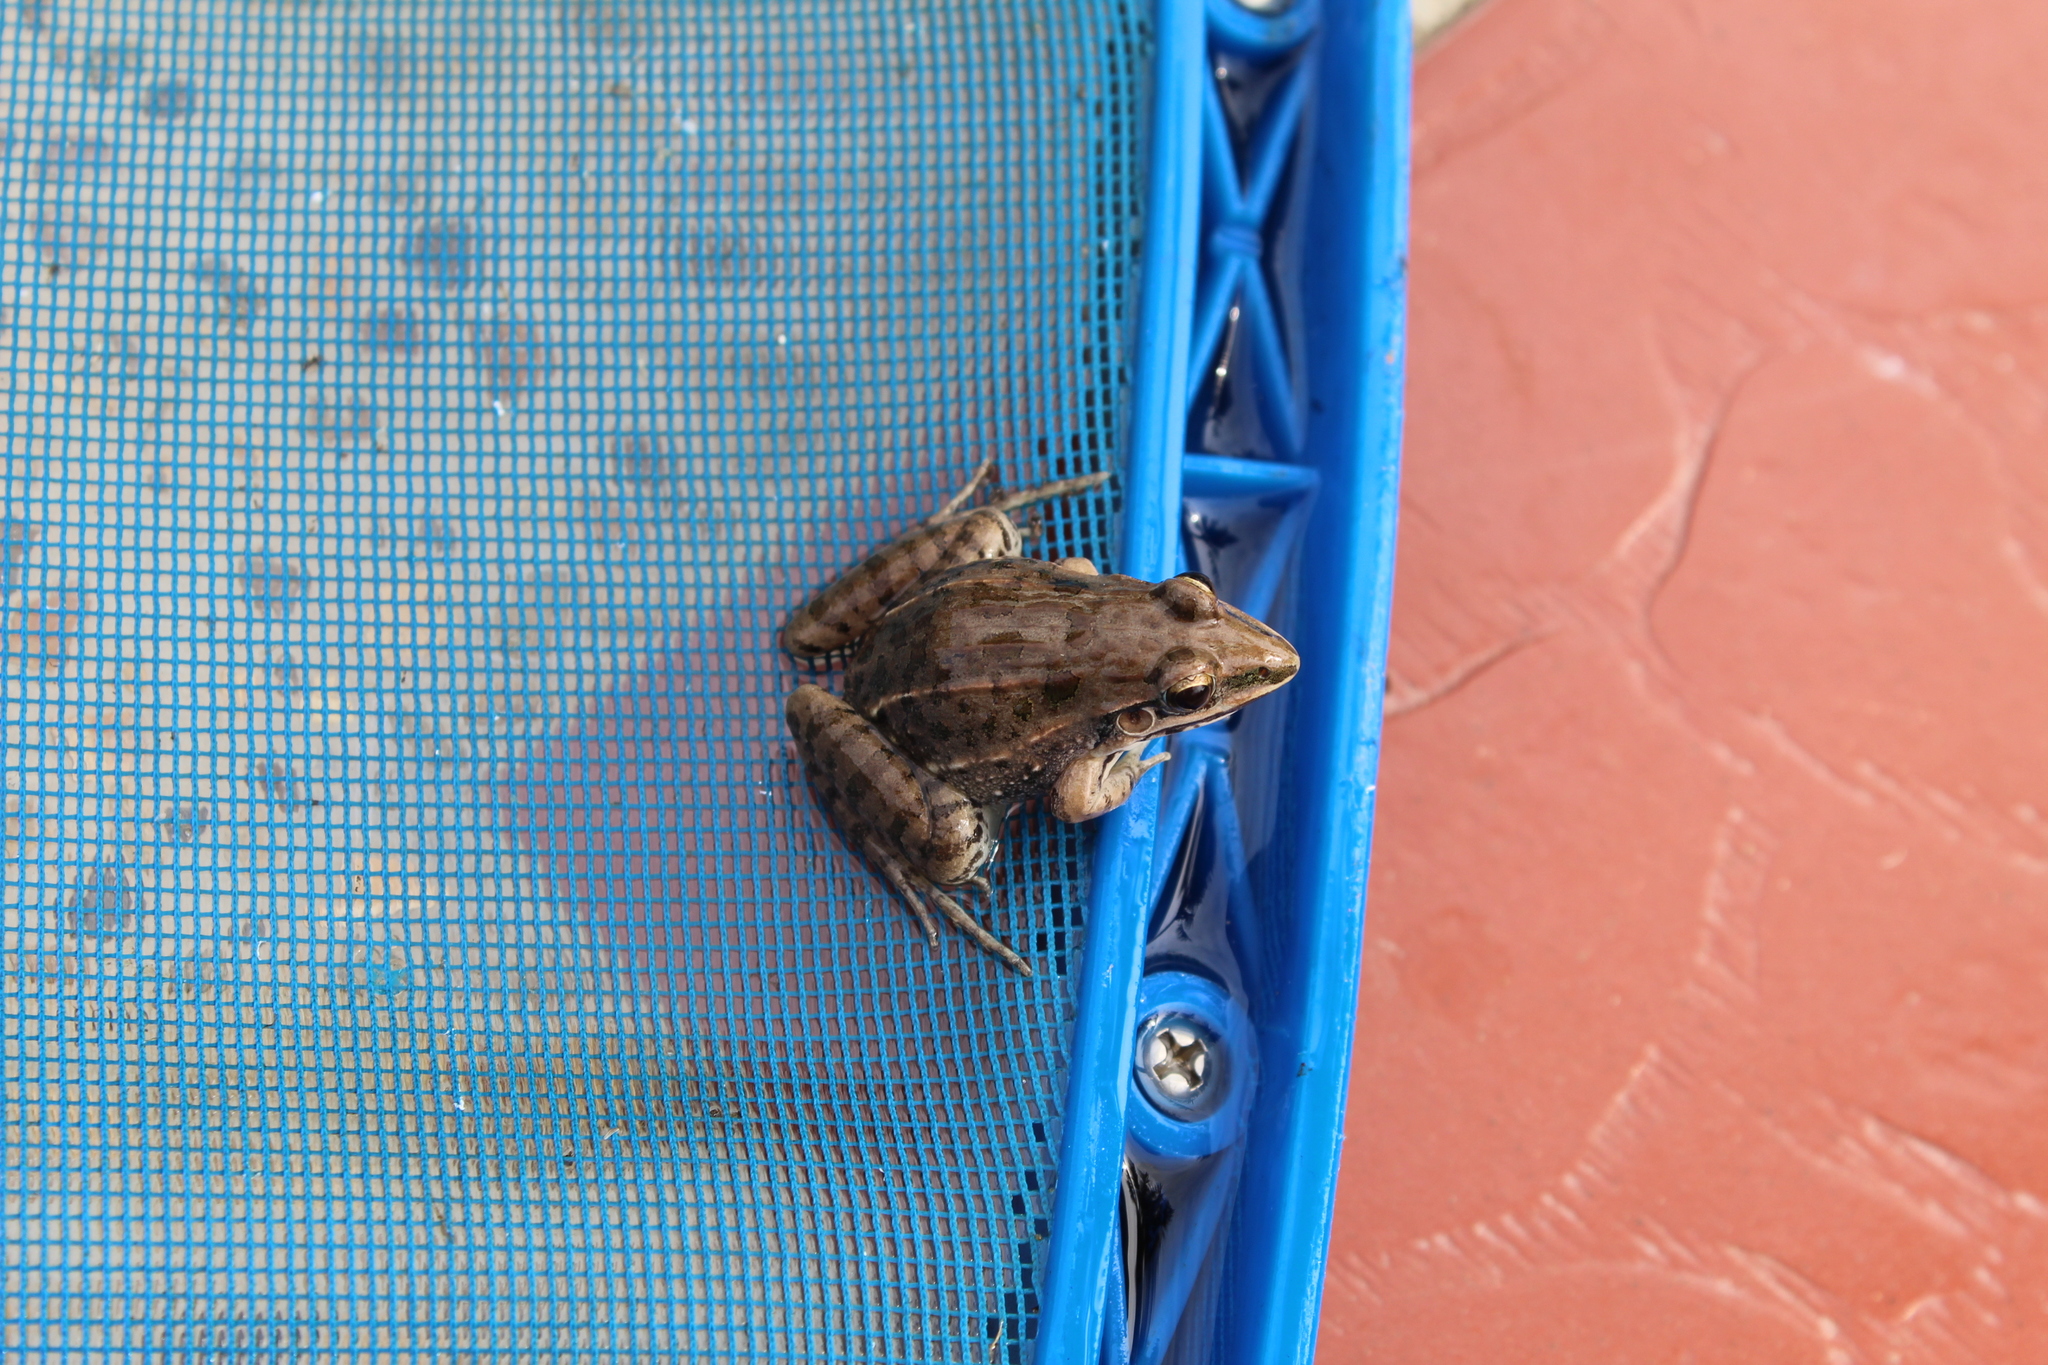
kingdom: Animalia
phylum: Chordata
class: Amphibia
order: Anura
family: Leptodactylidae
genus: Leptodactylus
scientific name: Leptodactylus fuscus
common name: Rufous frog
